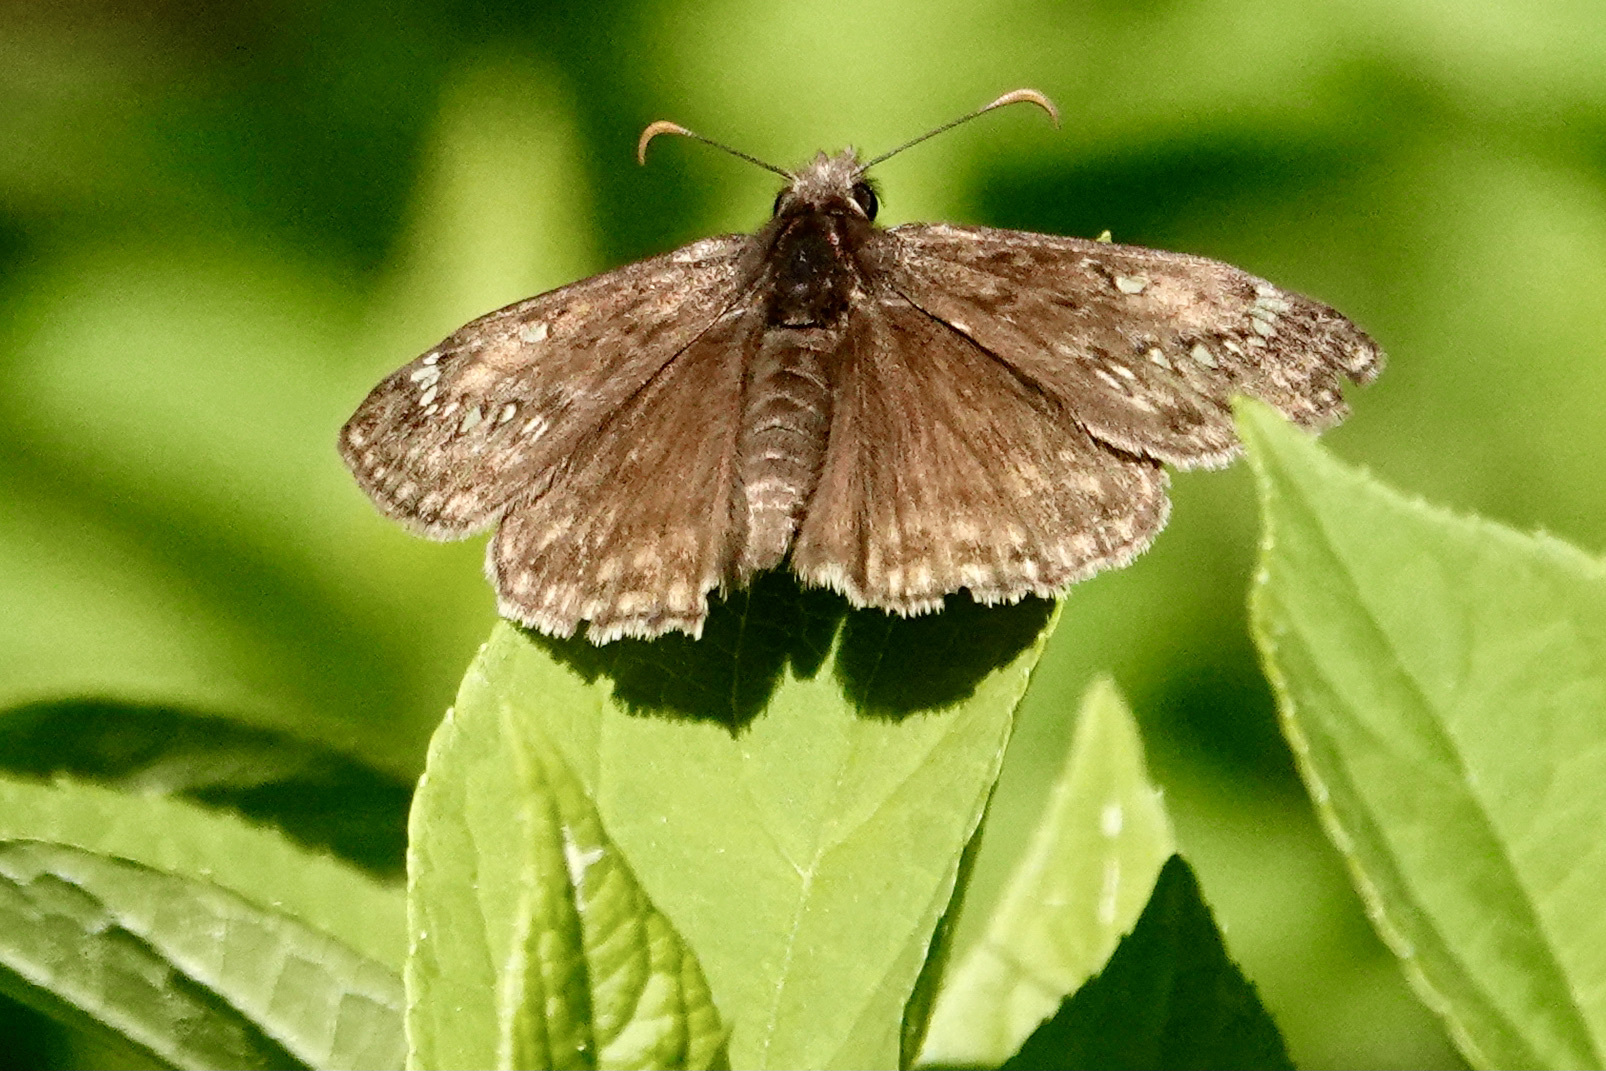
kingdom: Animalia
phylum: Arthropoda
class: Insecta
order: Lepidoptera
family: Hesperiidae
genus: Erynnis
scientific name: Erynnis juvenalis
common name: Juvenal's duskywing
